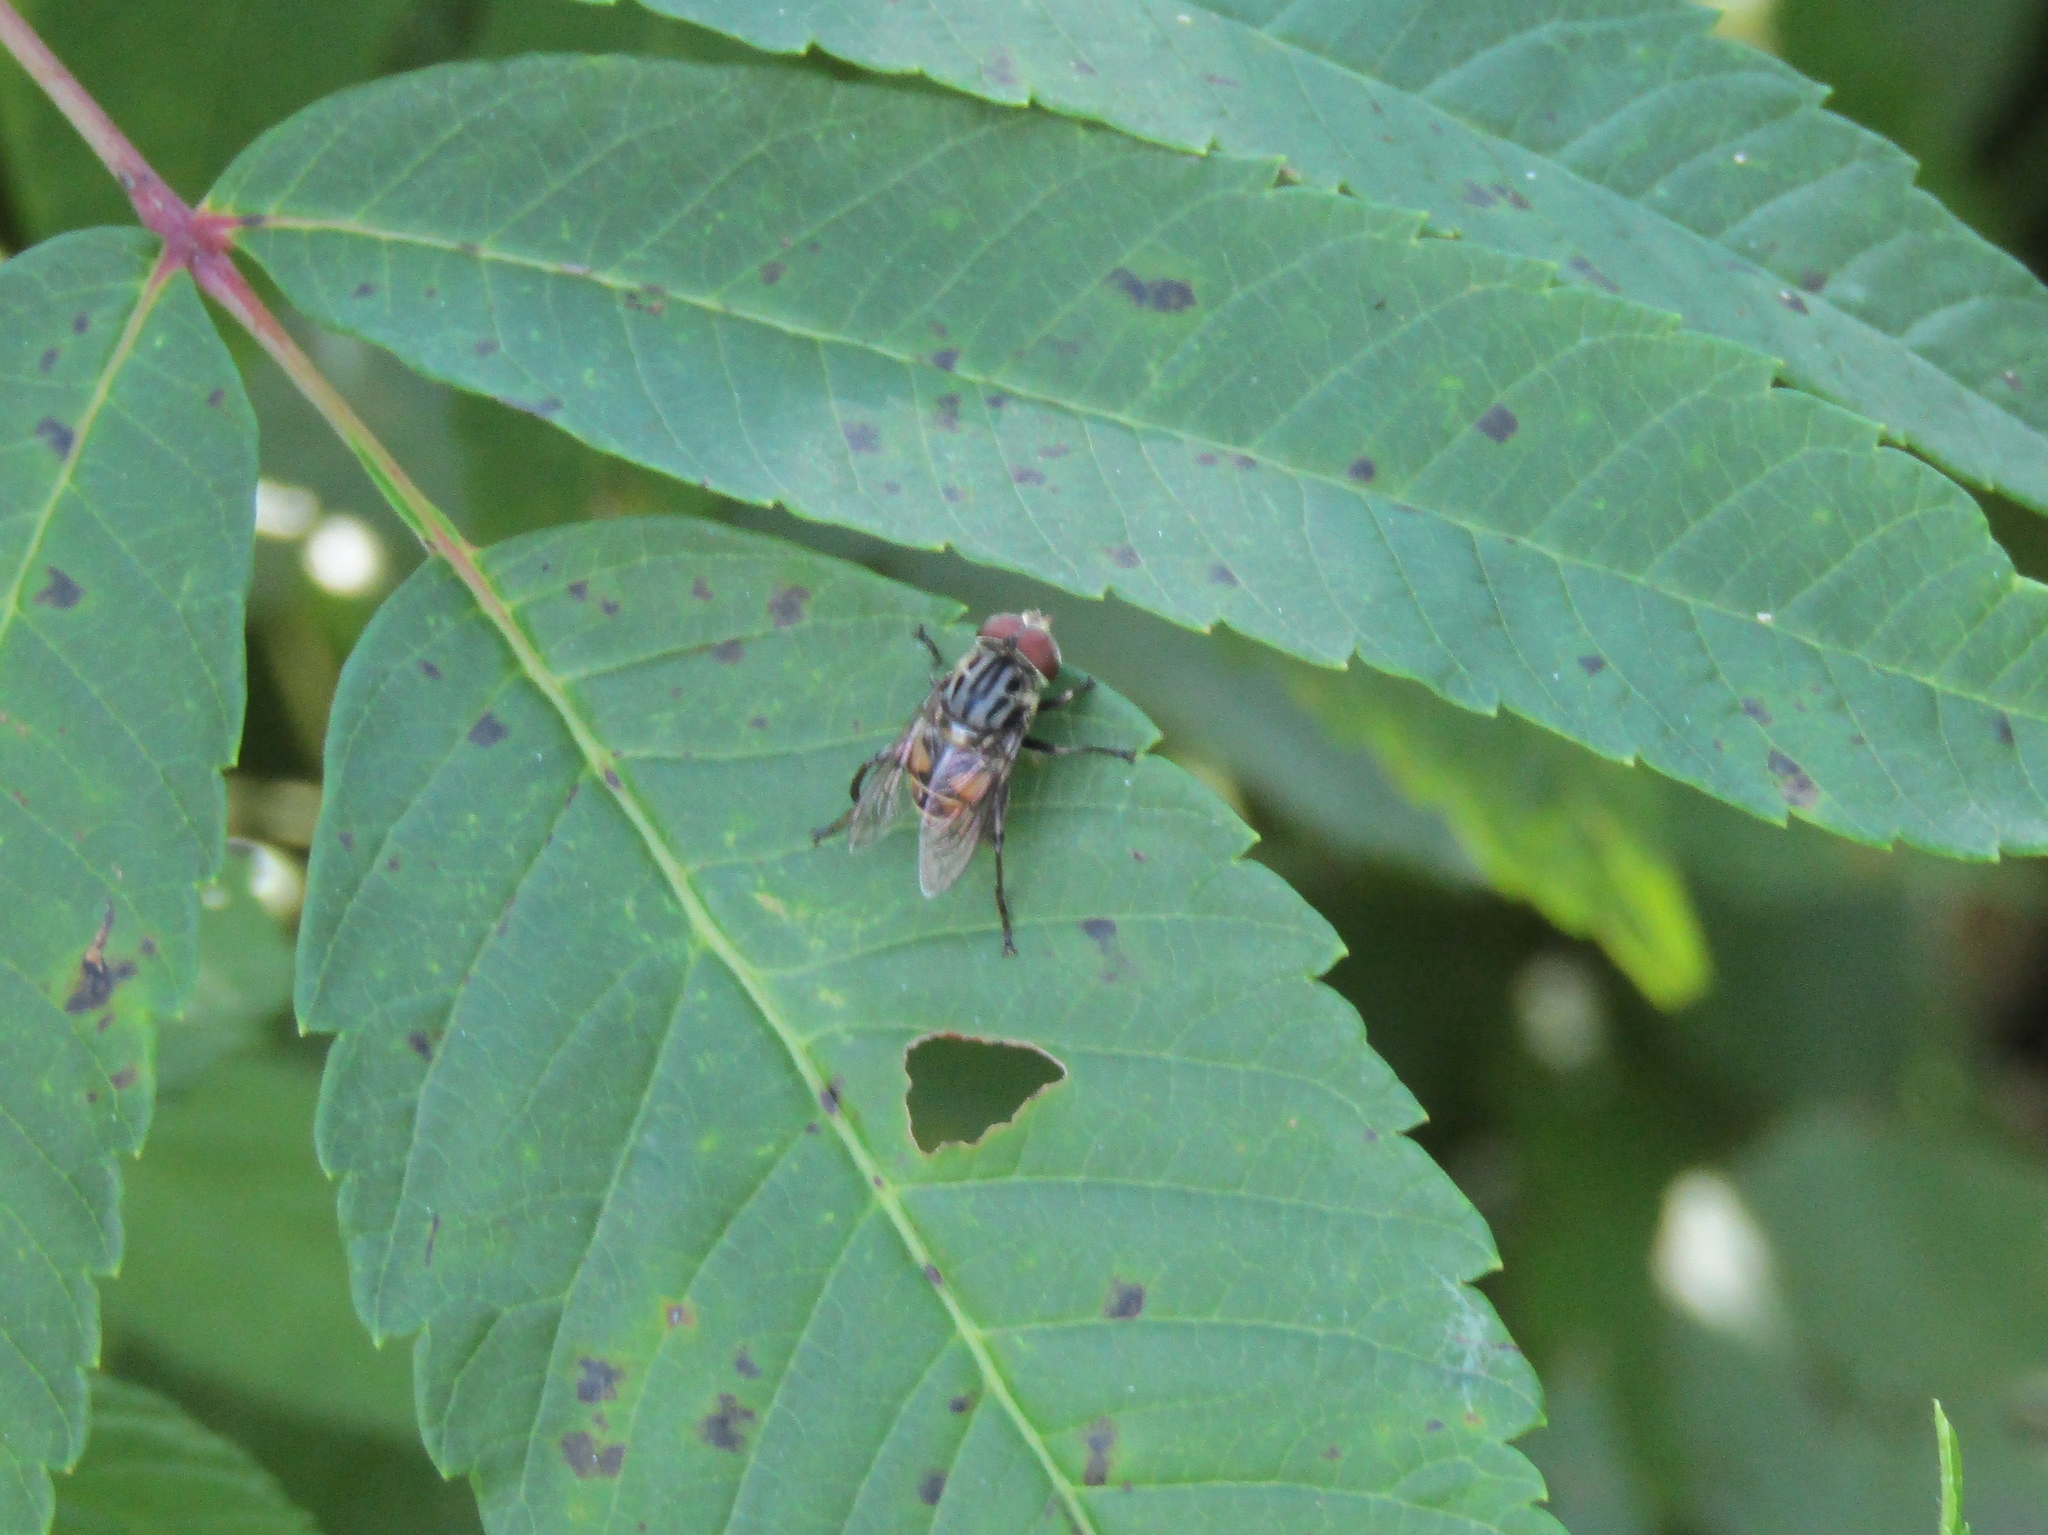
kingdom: Animalia
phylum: Arthropoda
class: Insecta
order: Diptera
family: Syrphidae
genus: Palpada
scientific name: Palpada furcata
